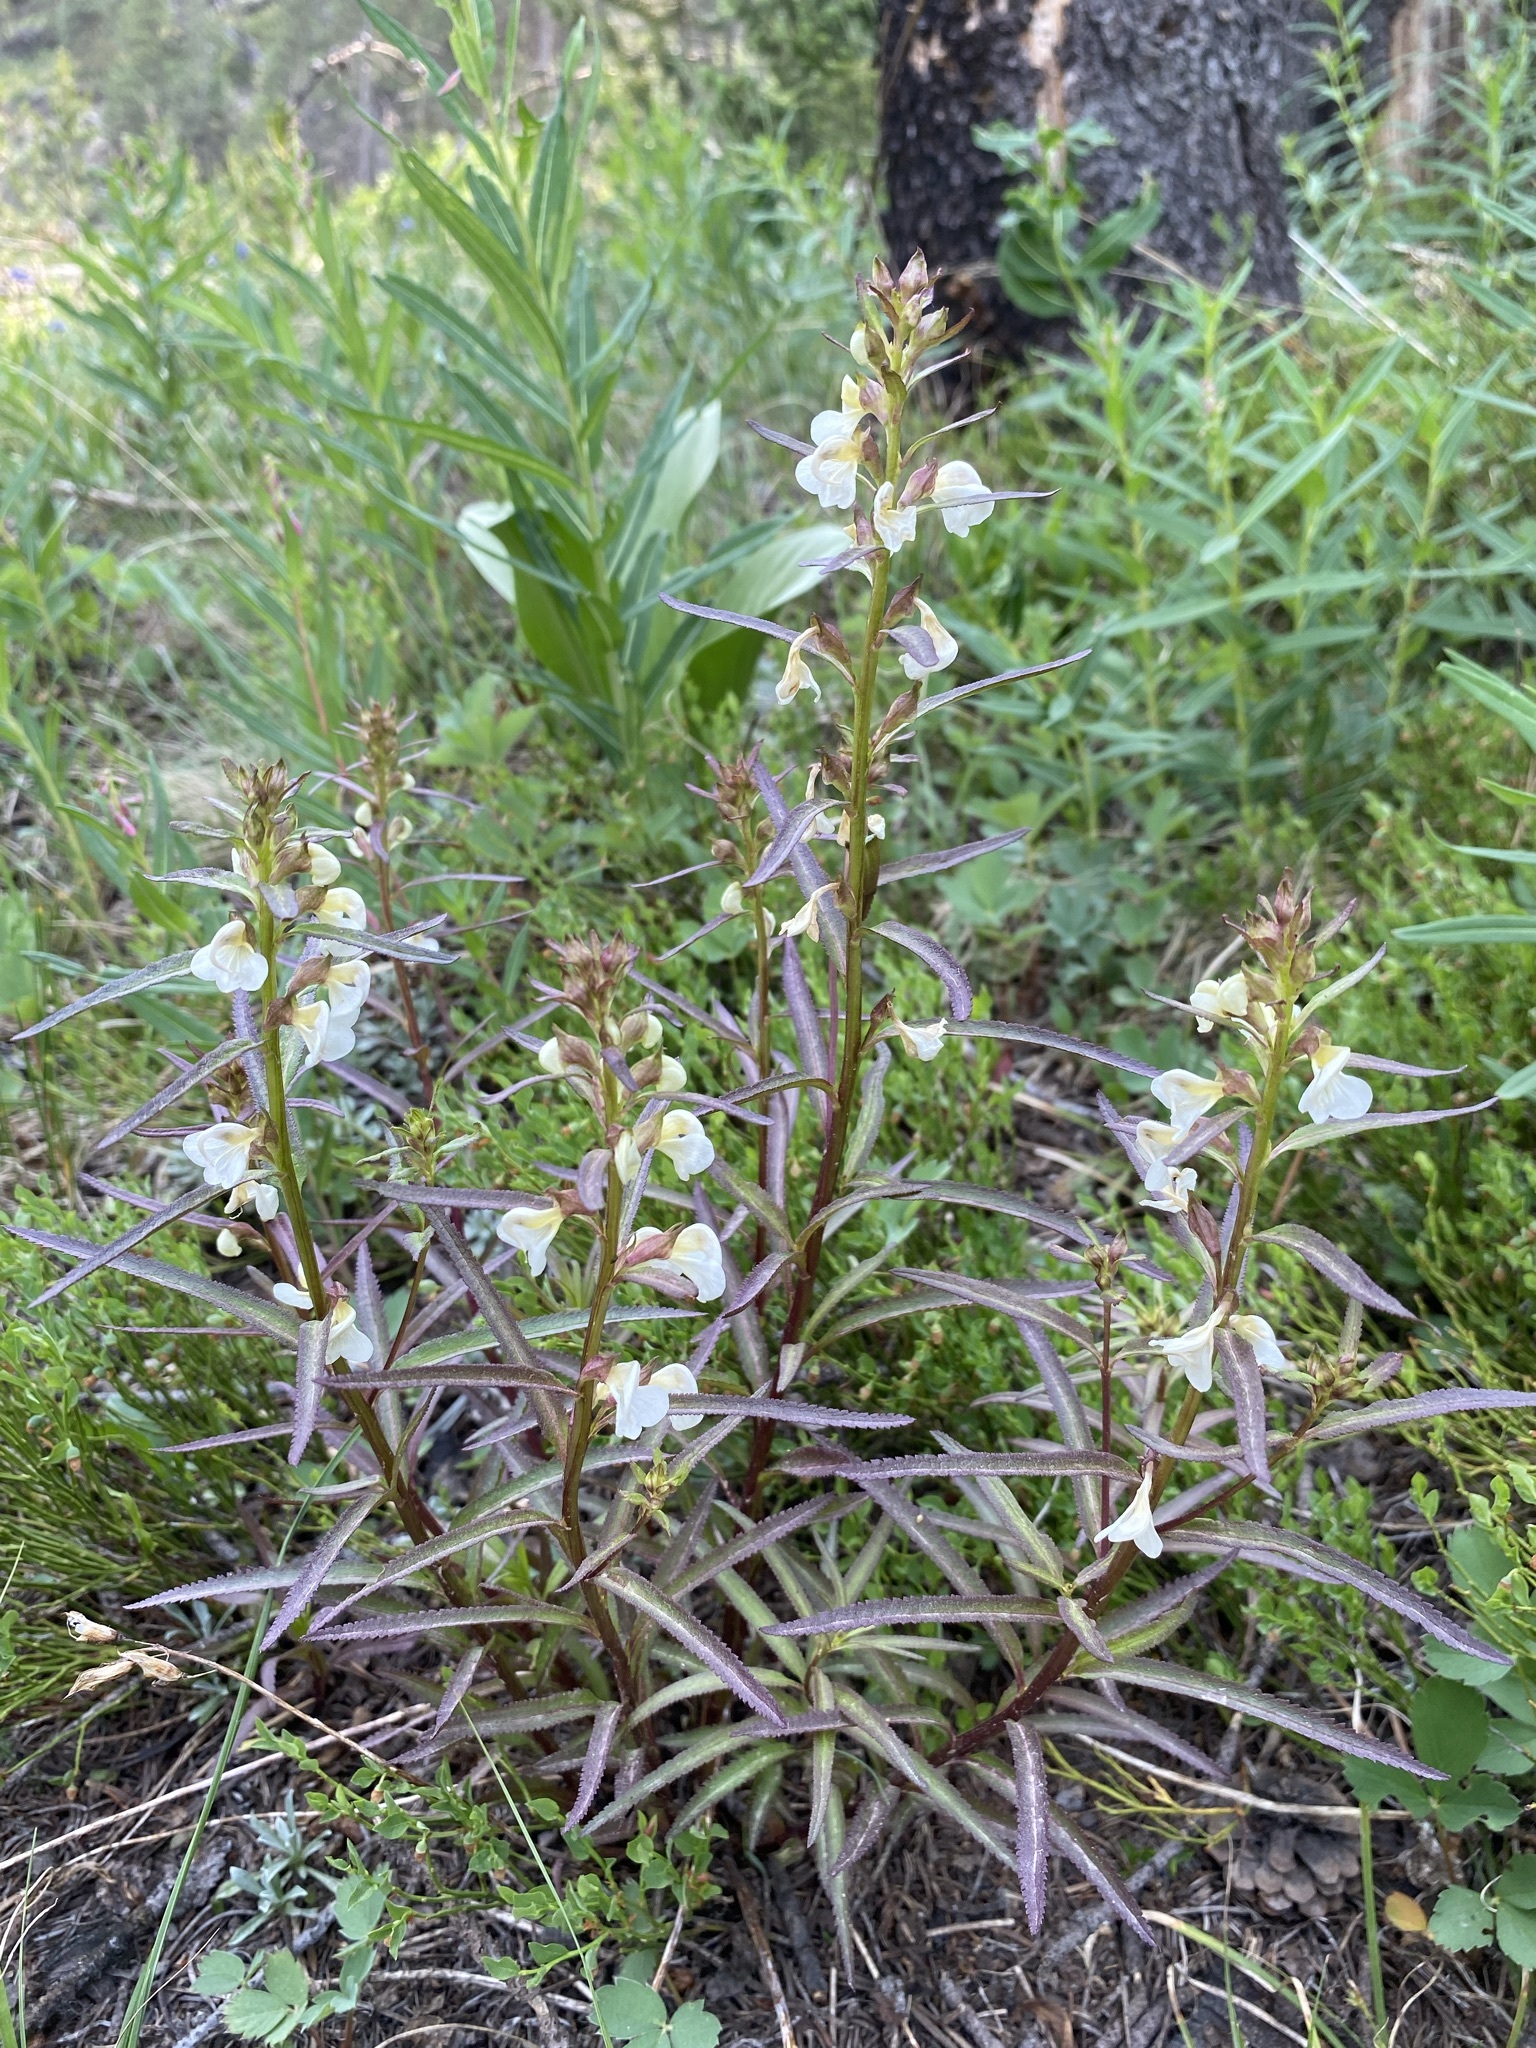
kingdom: Plantae
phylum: Tracheophyta
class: Magnoliopsida
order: Lamiales
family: Orobanchaceae
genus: Pedicularis
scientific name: Pedicularis racemosa
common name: Leafy lousewort
